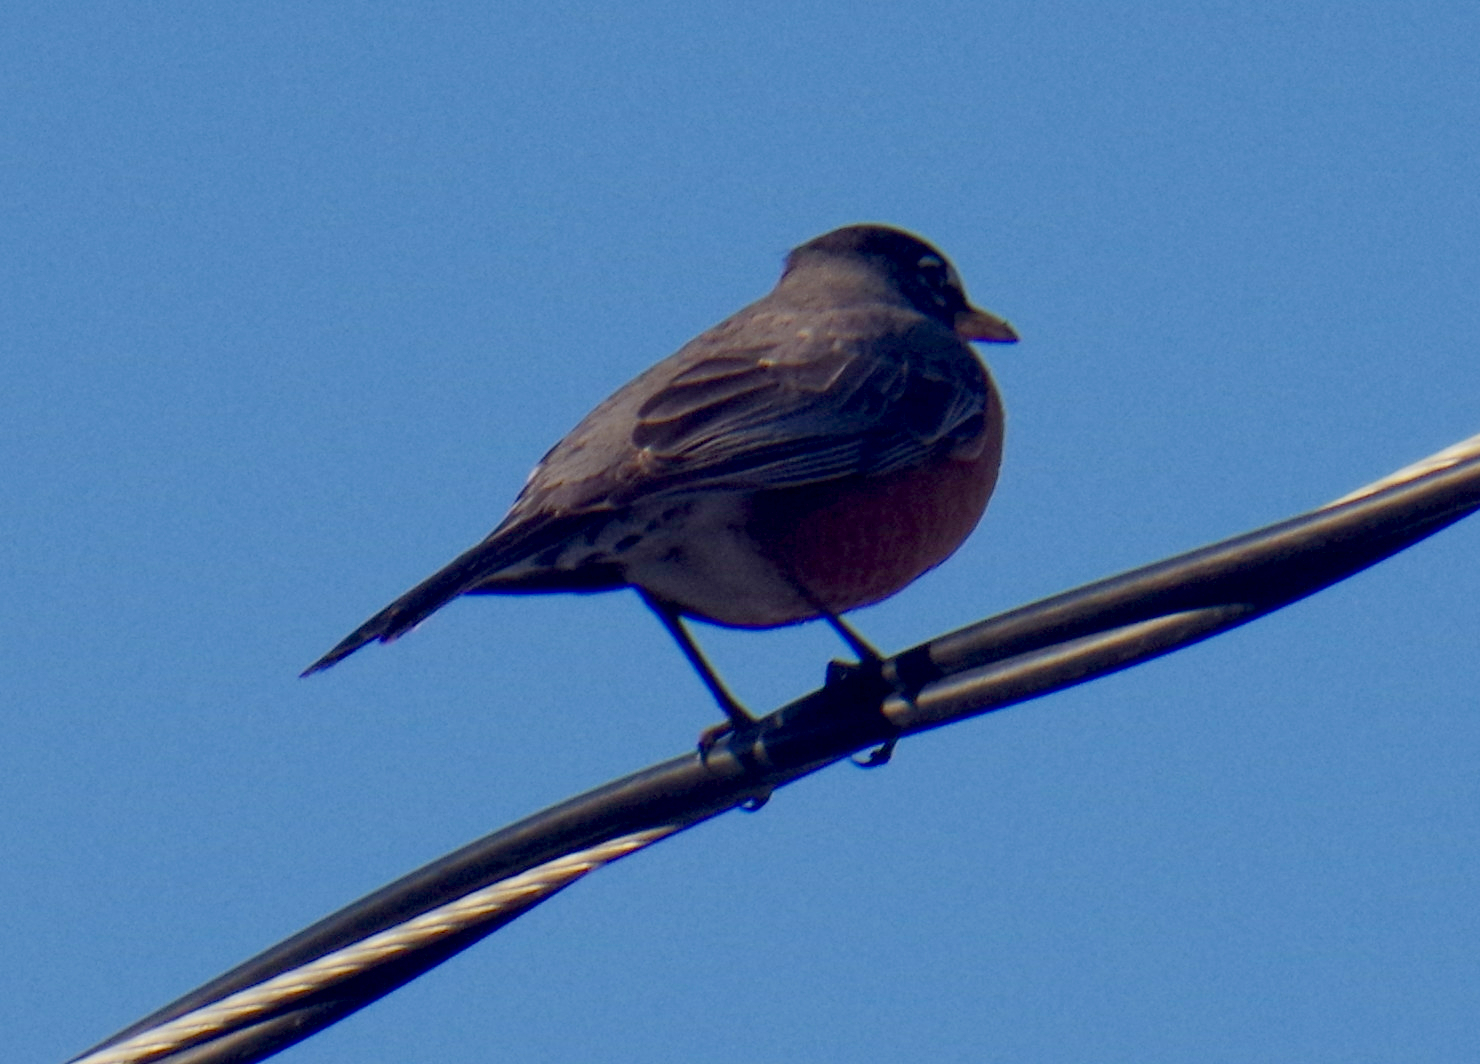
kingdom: Animalia
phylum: Chordata
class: Aves
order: Passeriformes
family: Turdidae
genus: Turdus
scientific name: Turdus migratorius
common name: American robin
